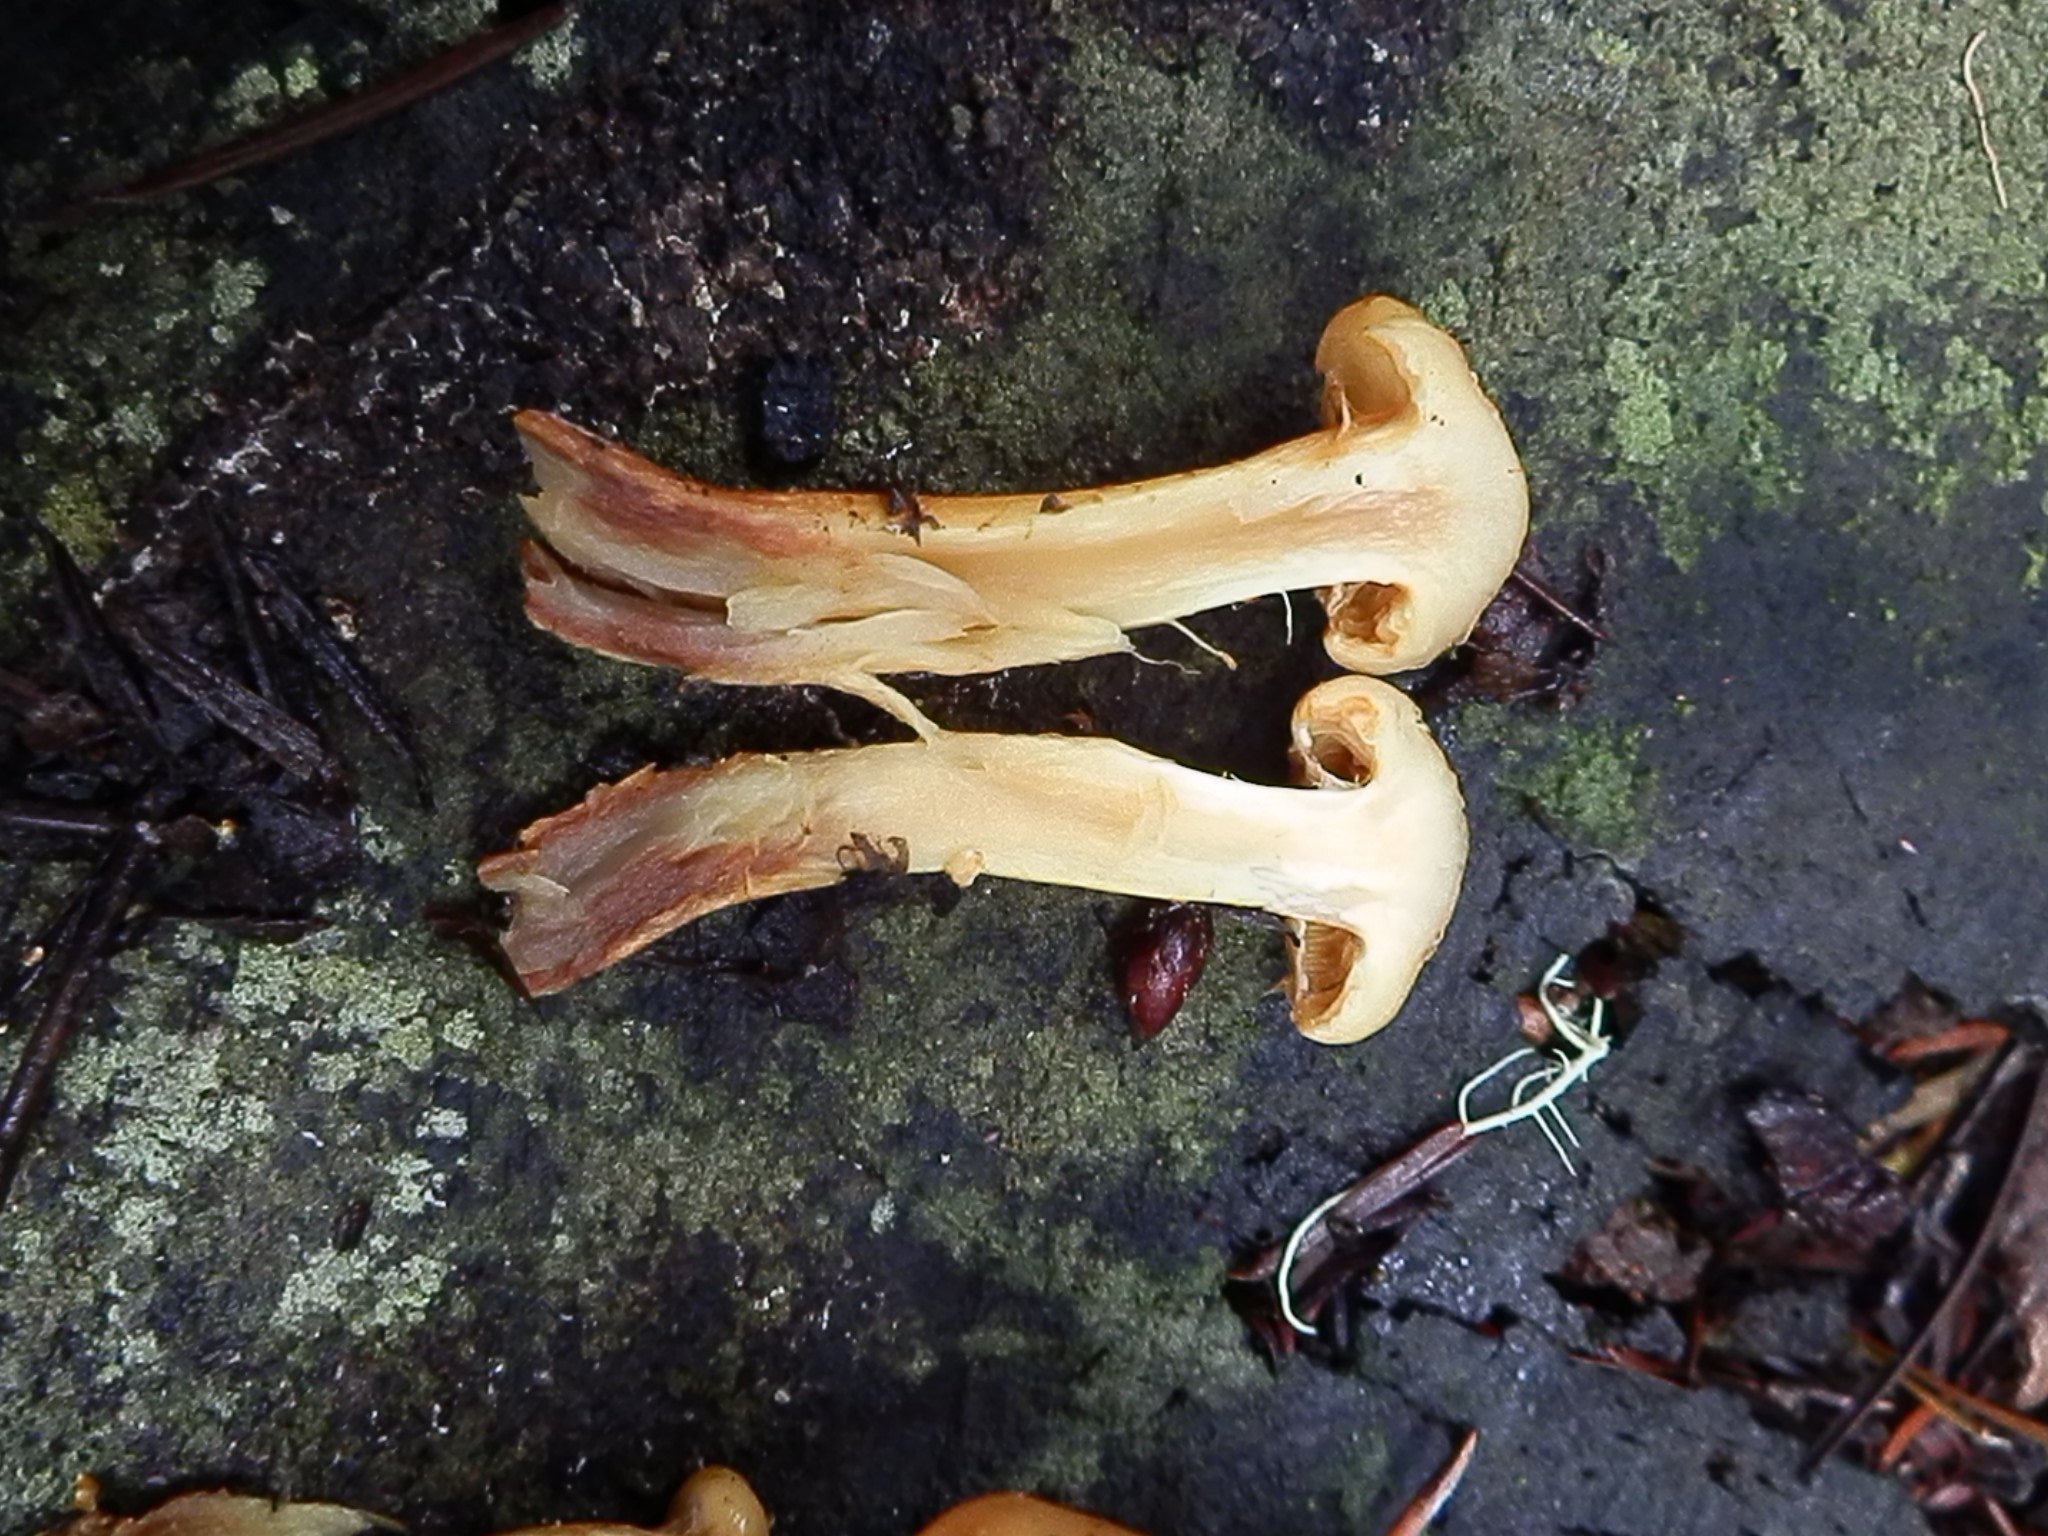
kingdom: Fungi
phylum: Basidiomycota
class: Agaricomycetes
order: Agaricales
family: Hymenogastraceae
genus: Flammula
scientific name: Flammula alnicola
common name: Alder scalycap
